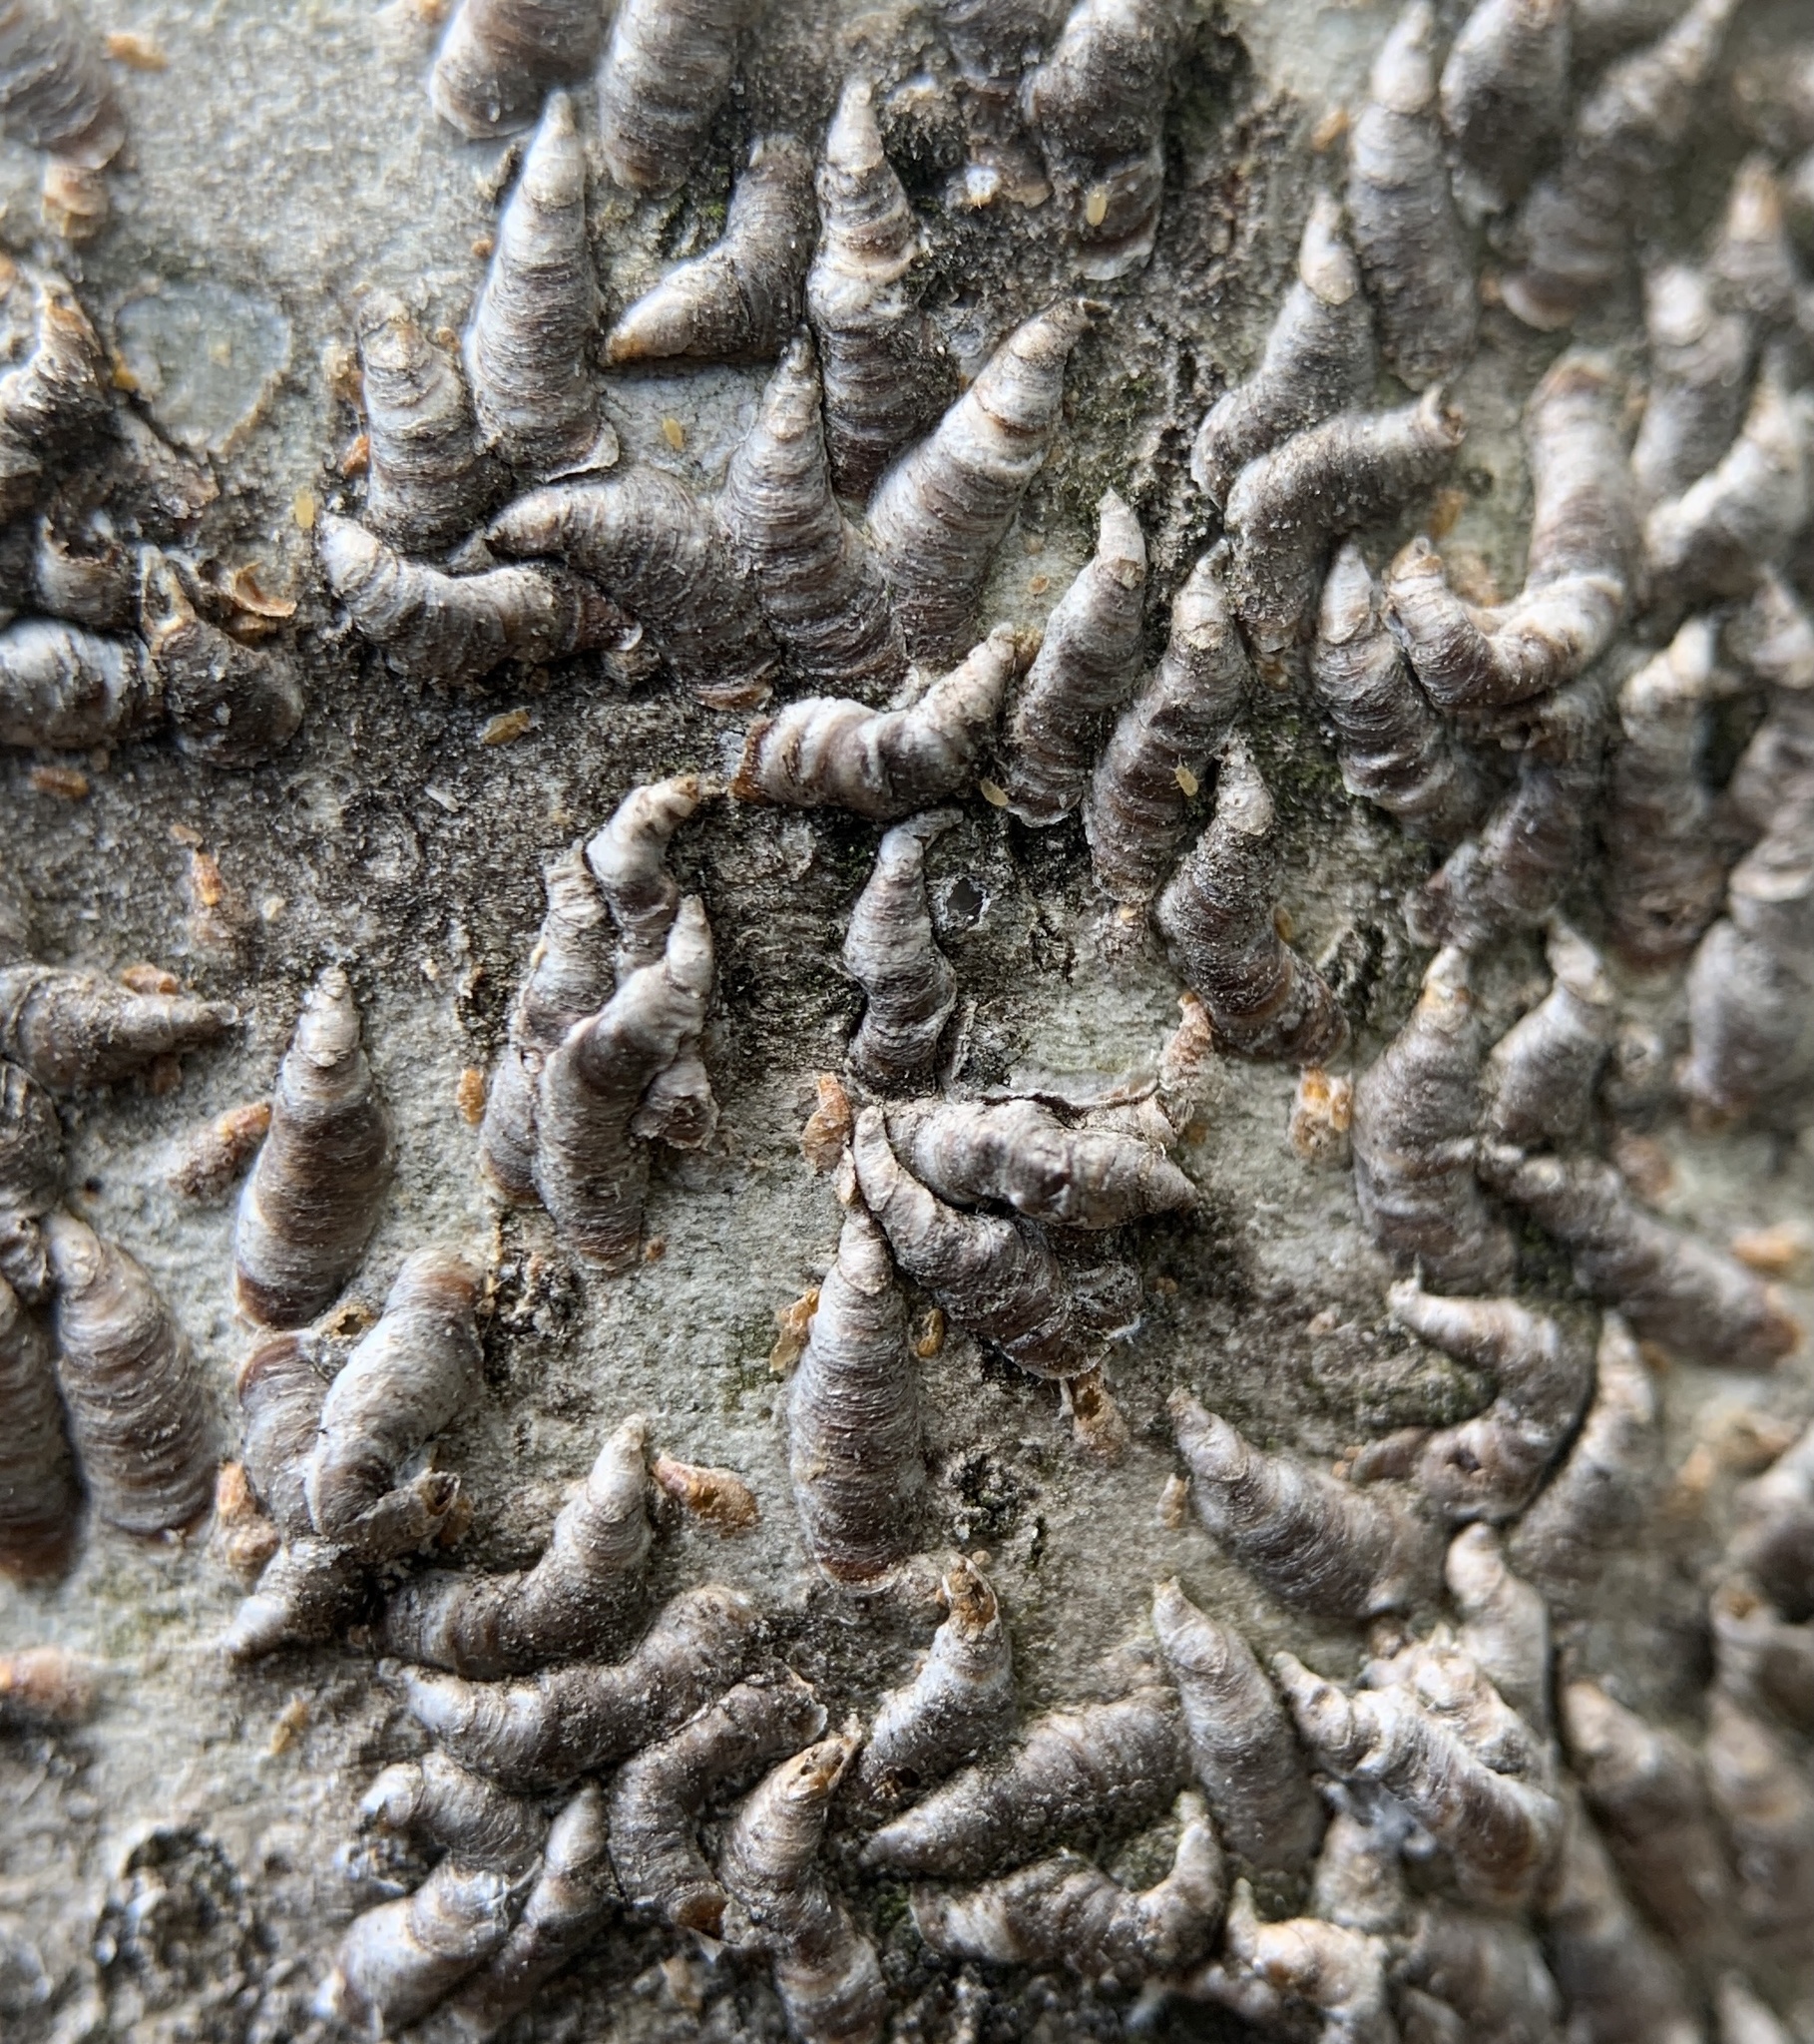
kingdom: Animalia
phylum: Arthropoda
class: Insecta
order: Hemiptera
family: Diaspididae
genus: Lepidosaphes
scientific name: Lepidosaphes ulmi
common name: Oystershell scale
